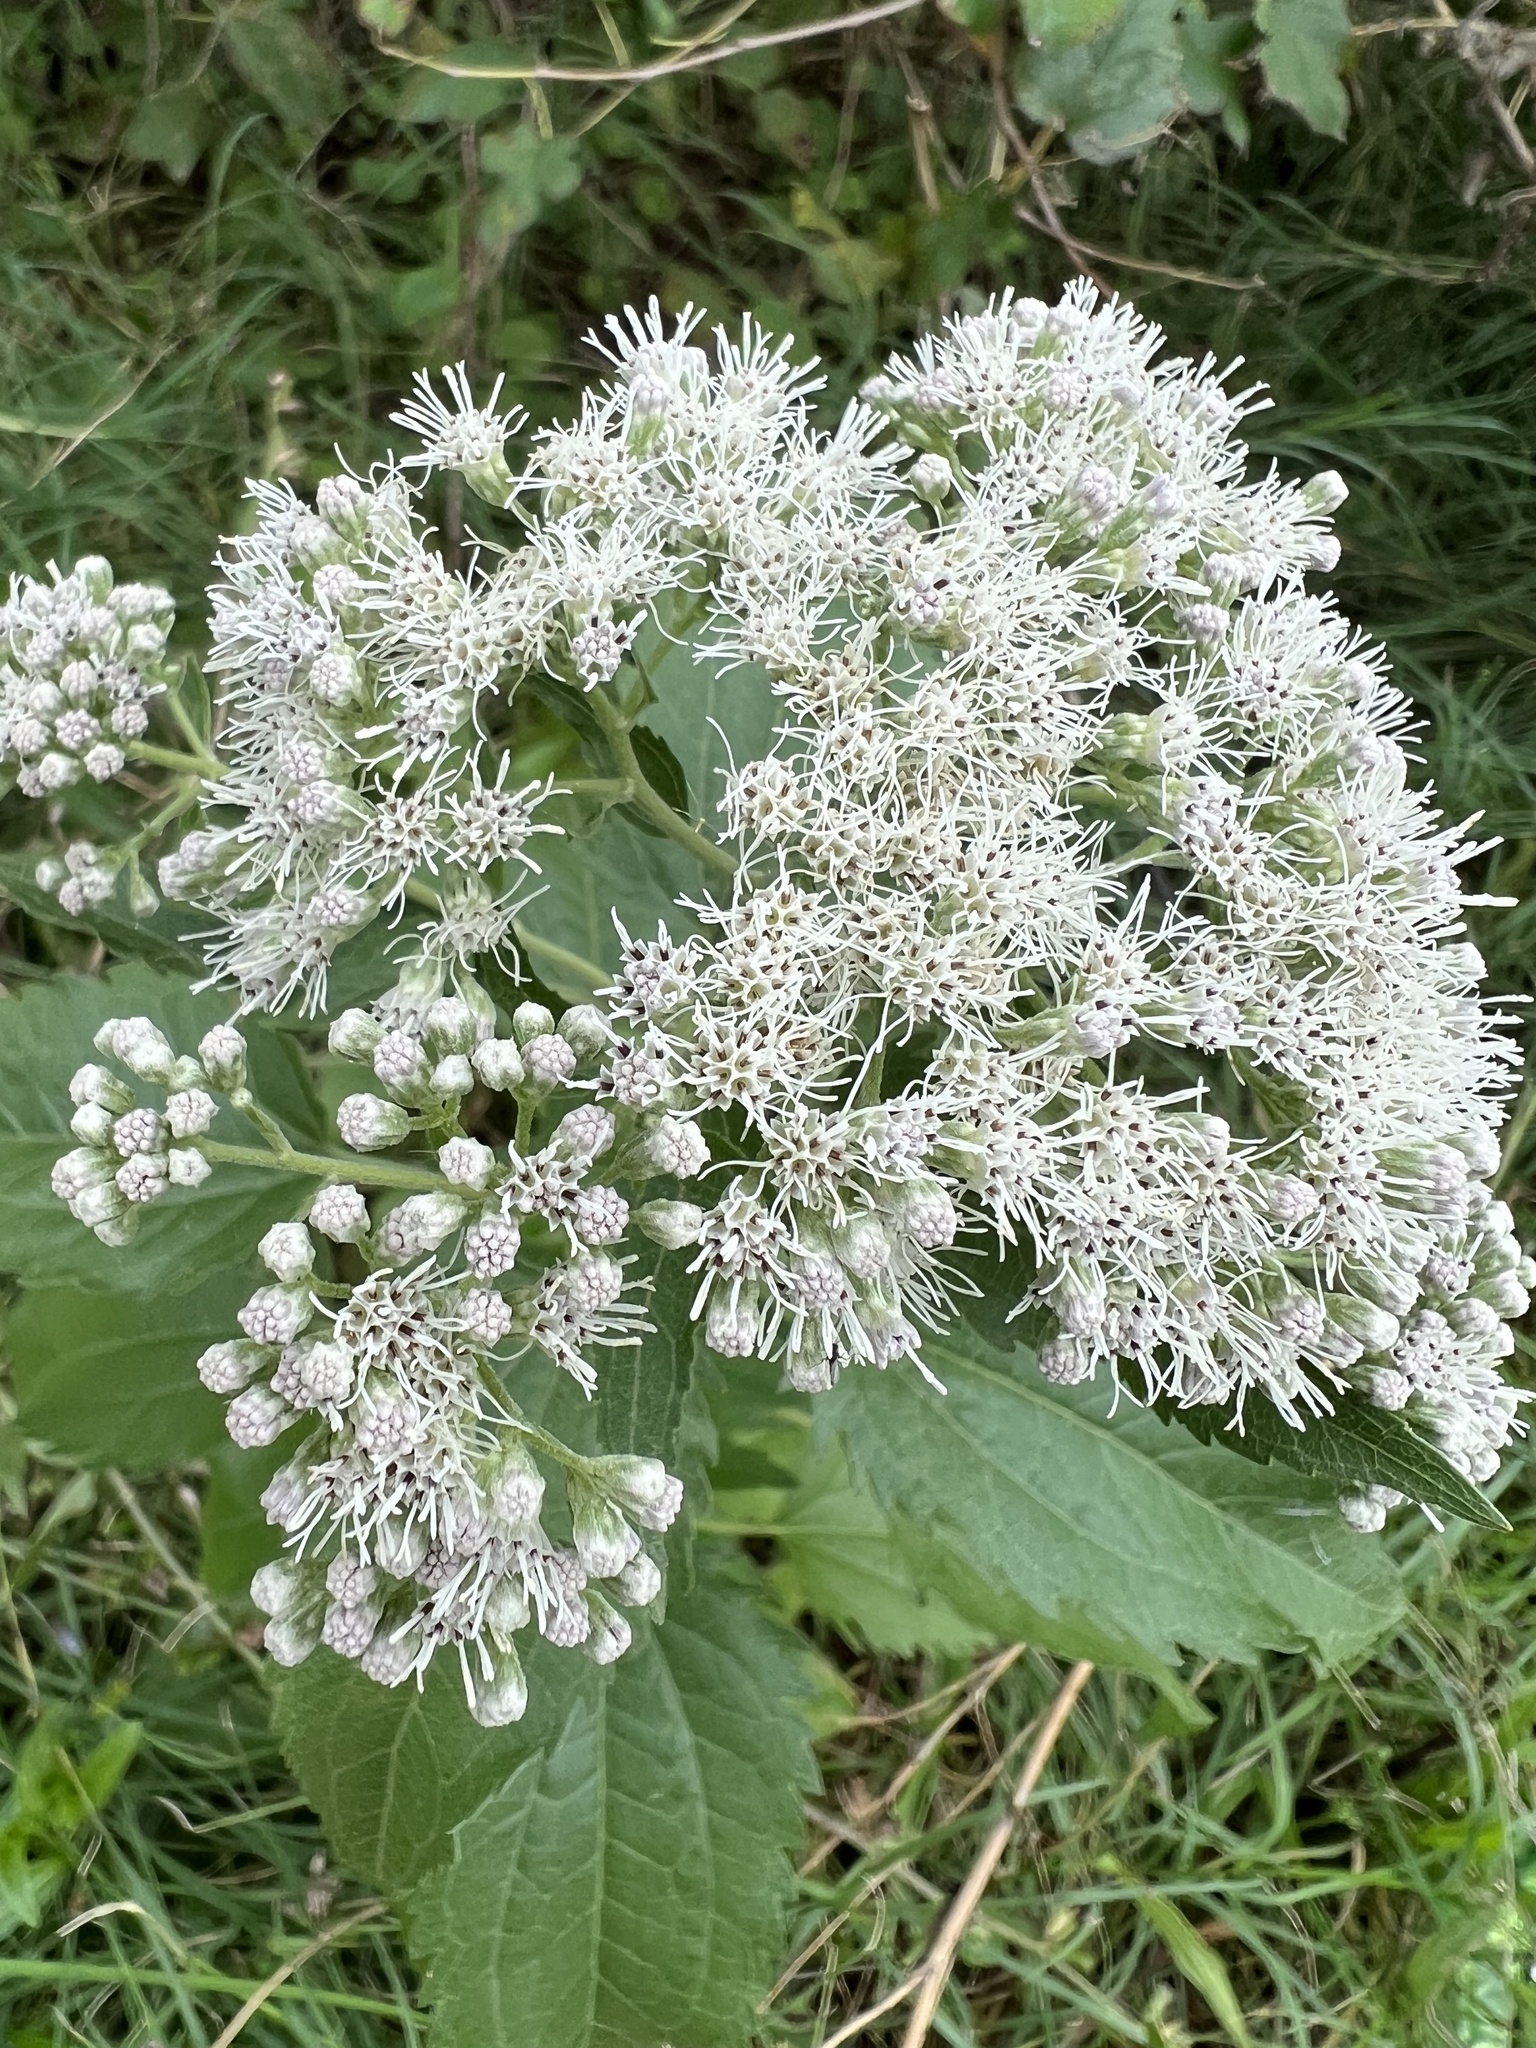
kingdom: Plantae
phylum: Tracheophyta
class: Magnoliopsida
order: Asterales
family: Asteraceae
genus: Eupatorium
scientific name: Eupatorium serotinum
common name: Late boneset
